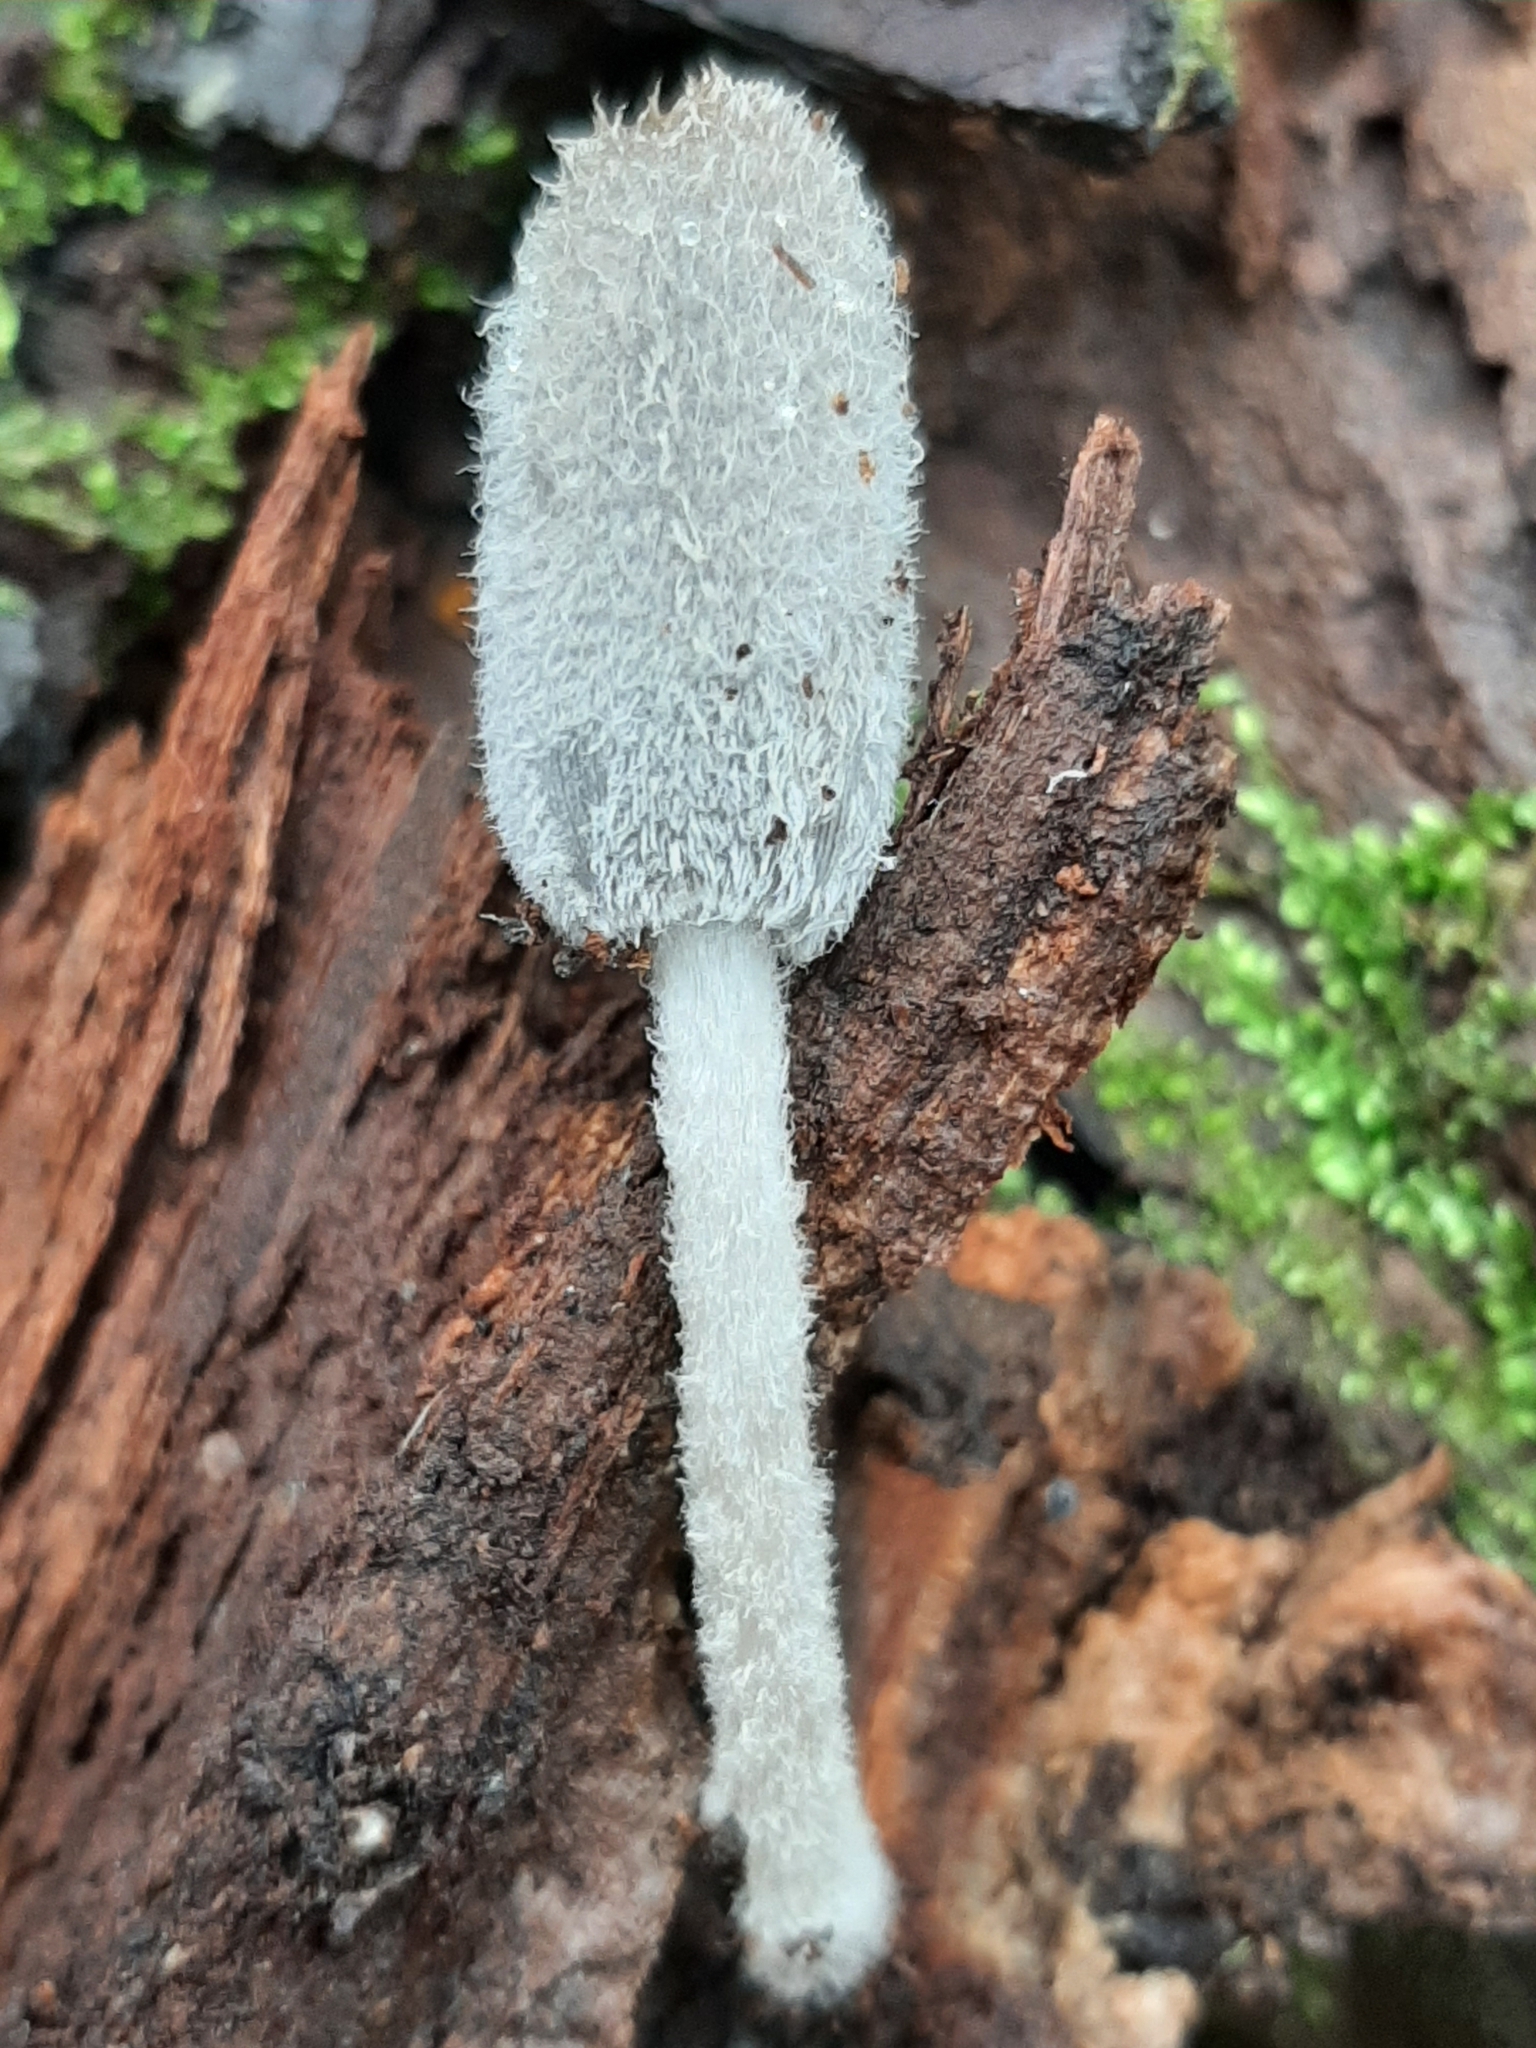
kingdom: Fungi
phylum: Basidiomycota
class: Agaricomycetes
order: Agaricales
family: Psathyrellaceae
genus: Coprinopsis
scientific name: Coprinopsis lagopus
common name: Hare'sfoot inkcap
